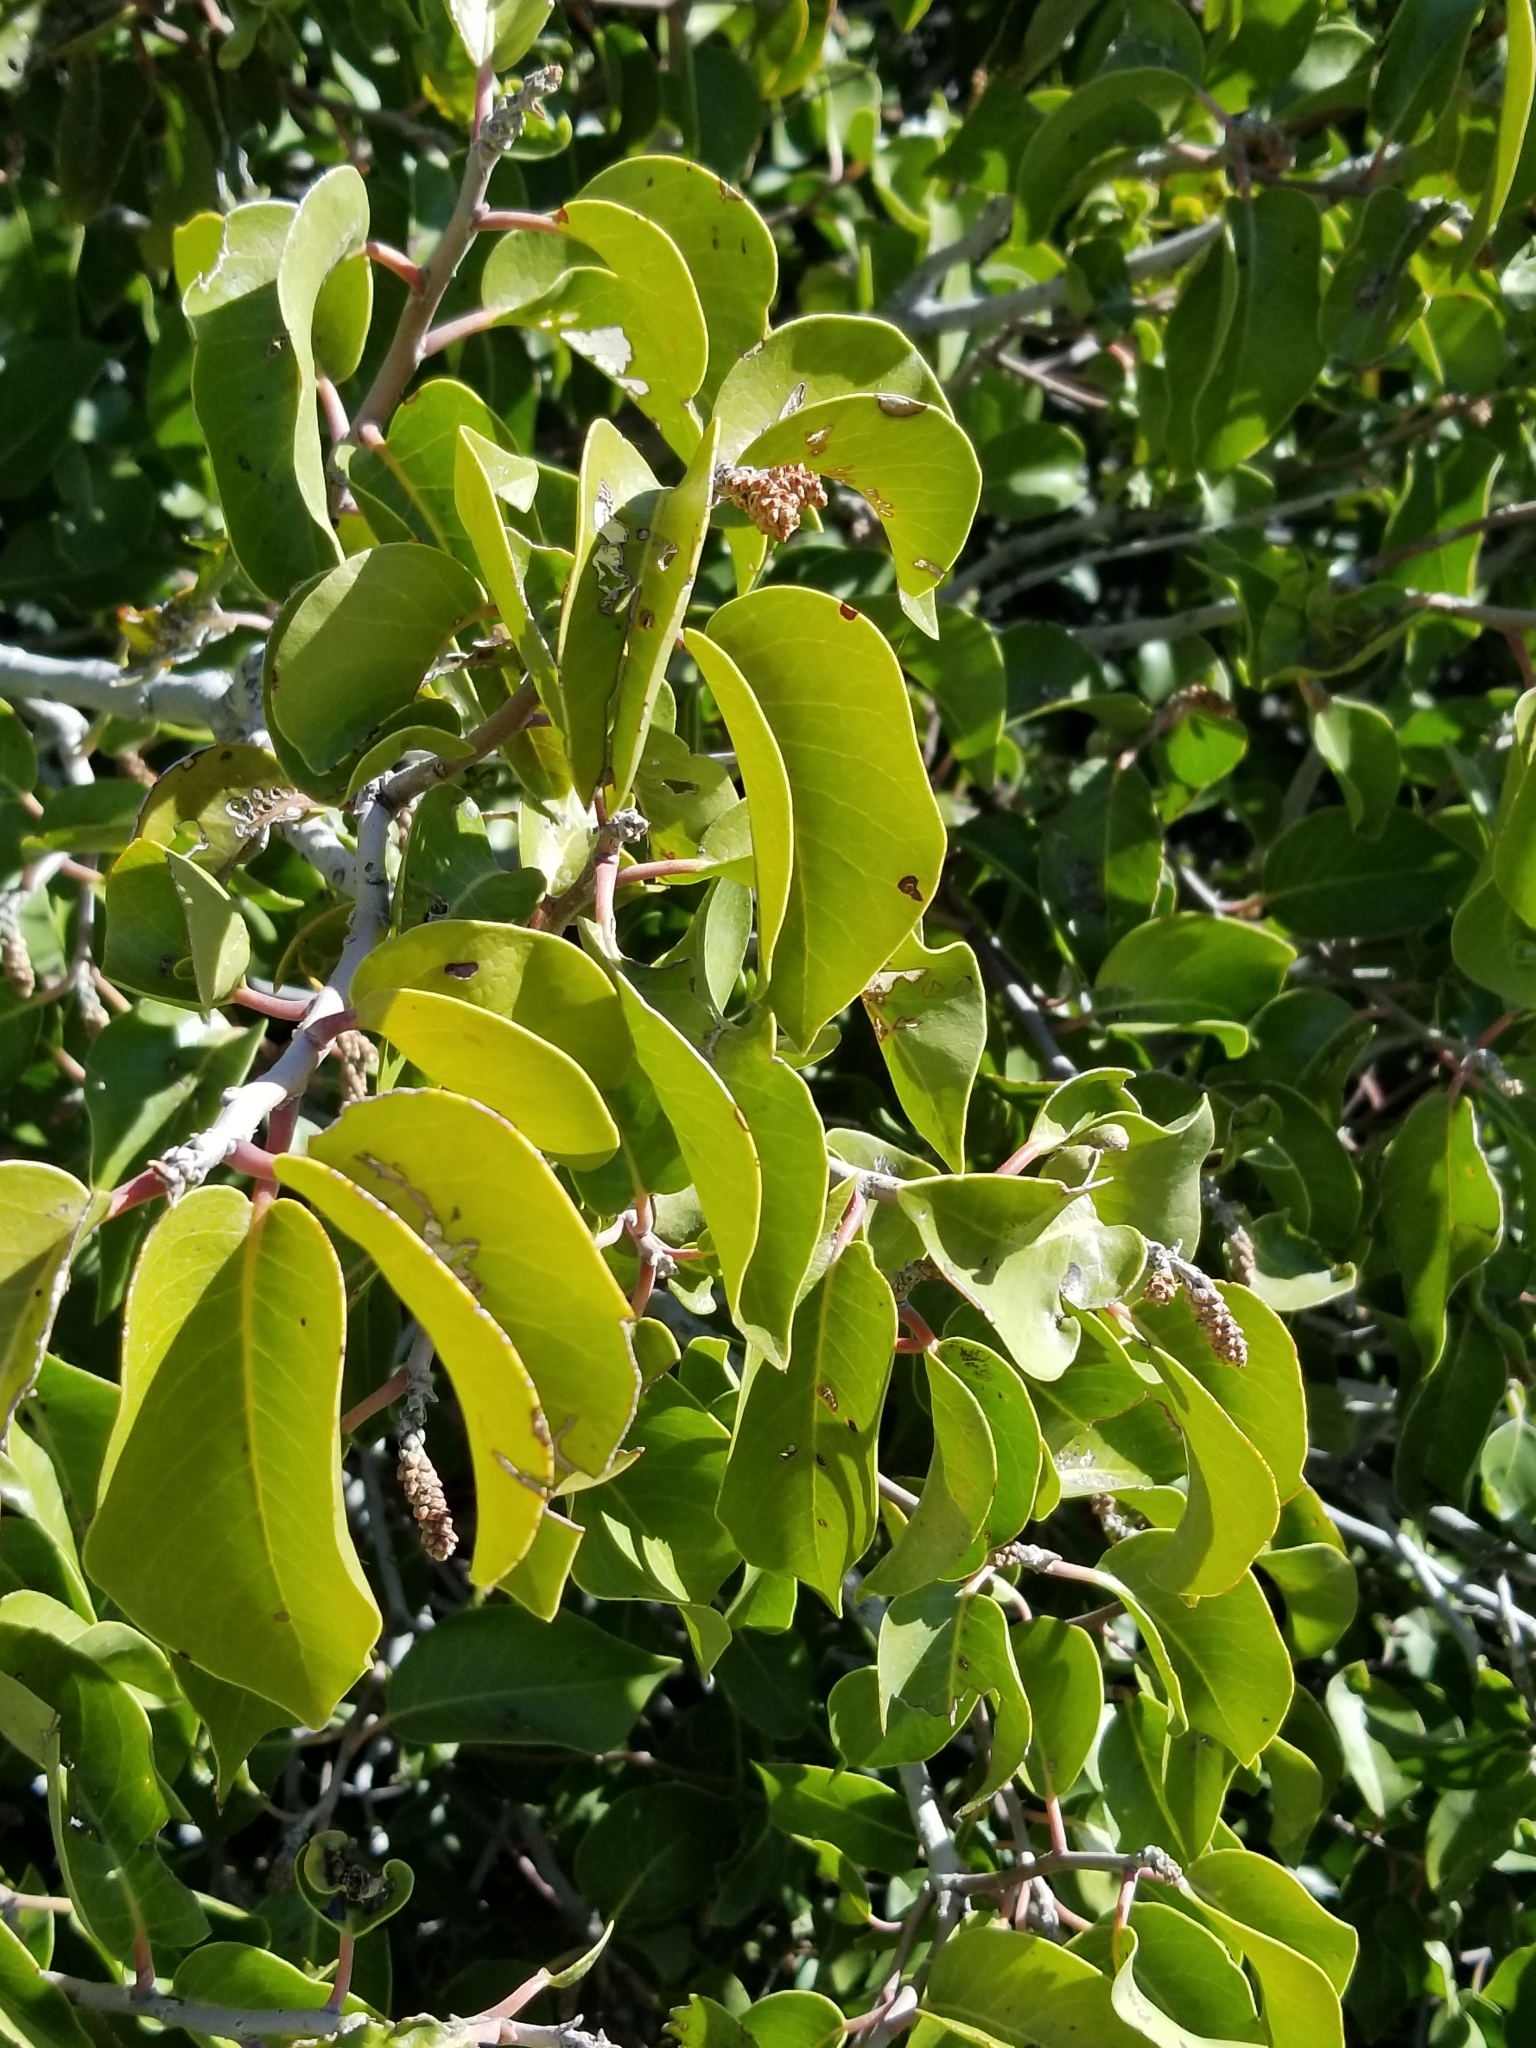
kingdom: Plantae
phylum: Tracheophyta
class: Magnoliopsida
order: Sapindales
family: Anacardiaceae
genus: Rhus
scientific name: Rhus ovata
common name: Sugar sumac
